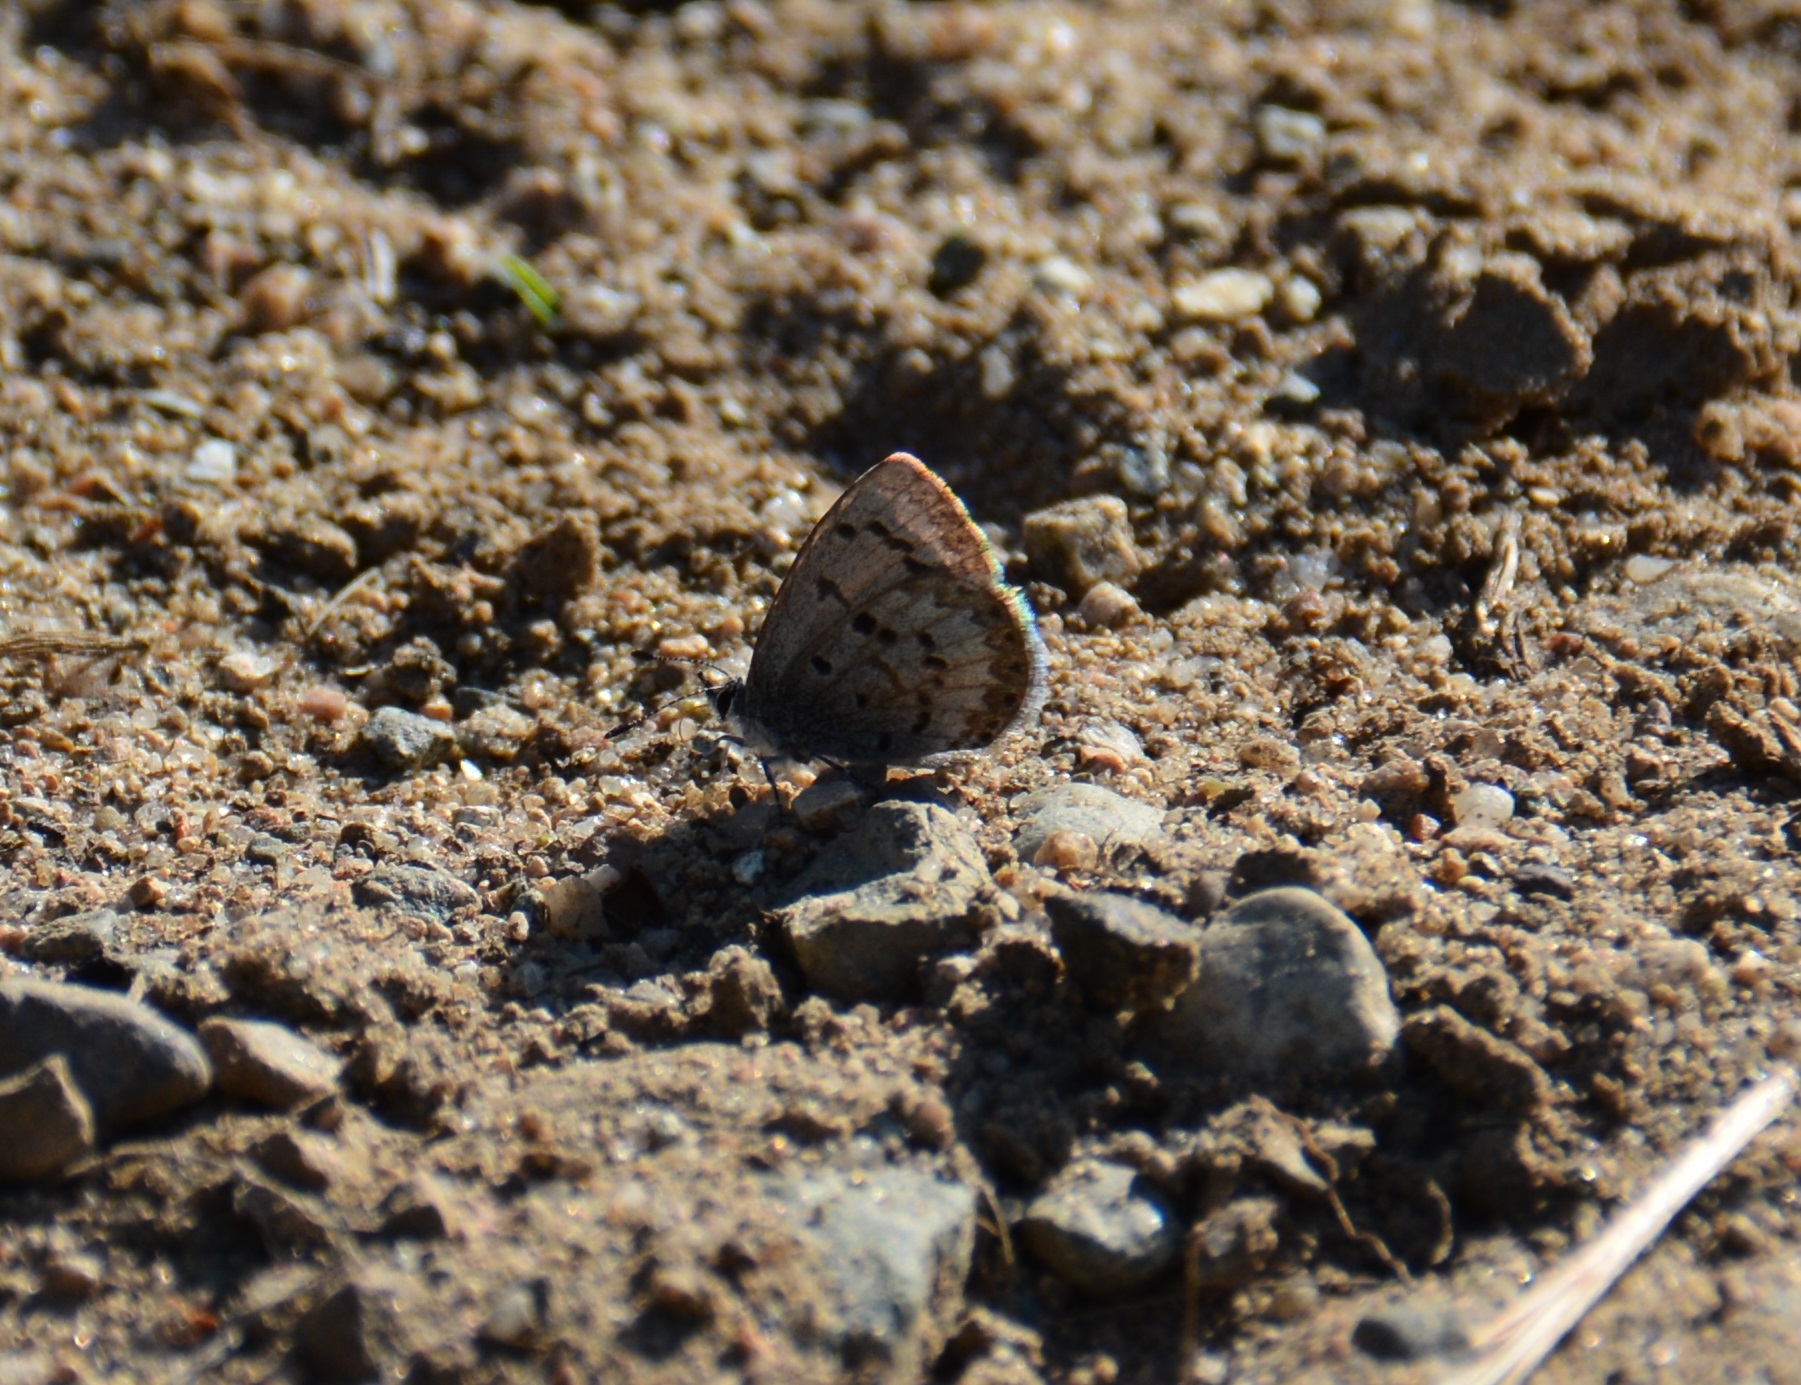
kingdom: Animalia
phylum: Arthropoda
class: Insecta
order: Lepidoptera
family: Lycaenidae
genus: Celastrina
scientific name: Celastrina ladon
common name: Spring azure
